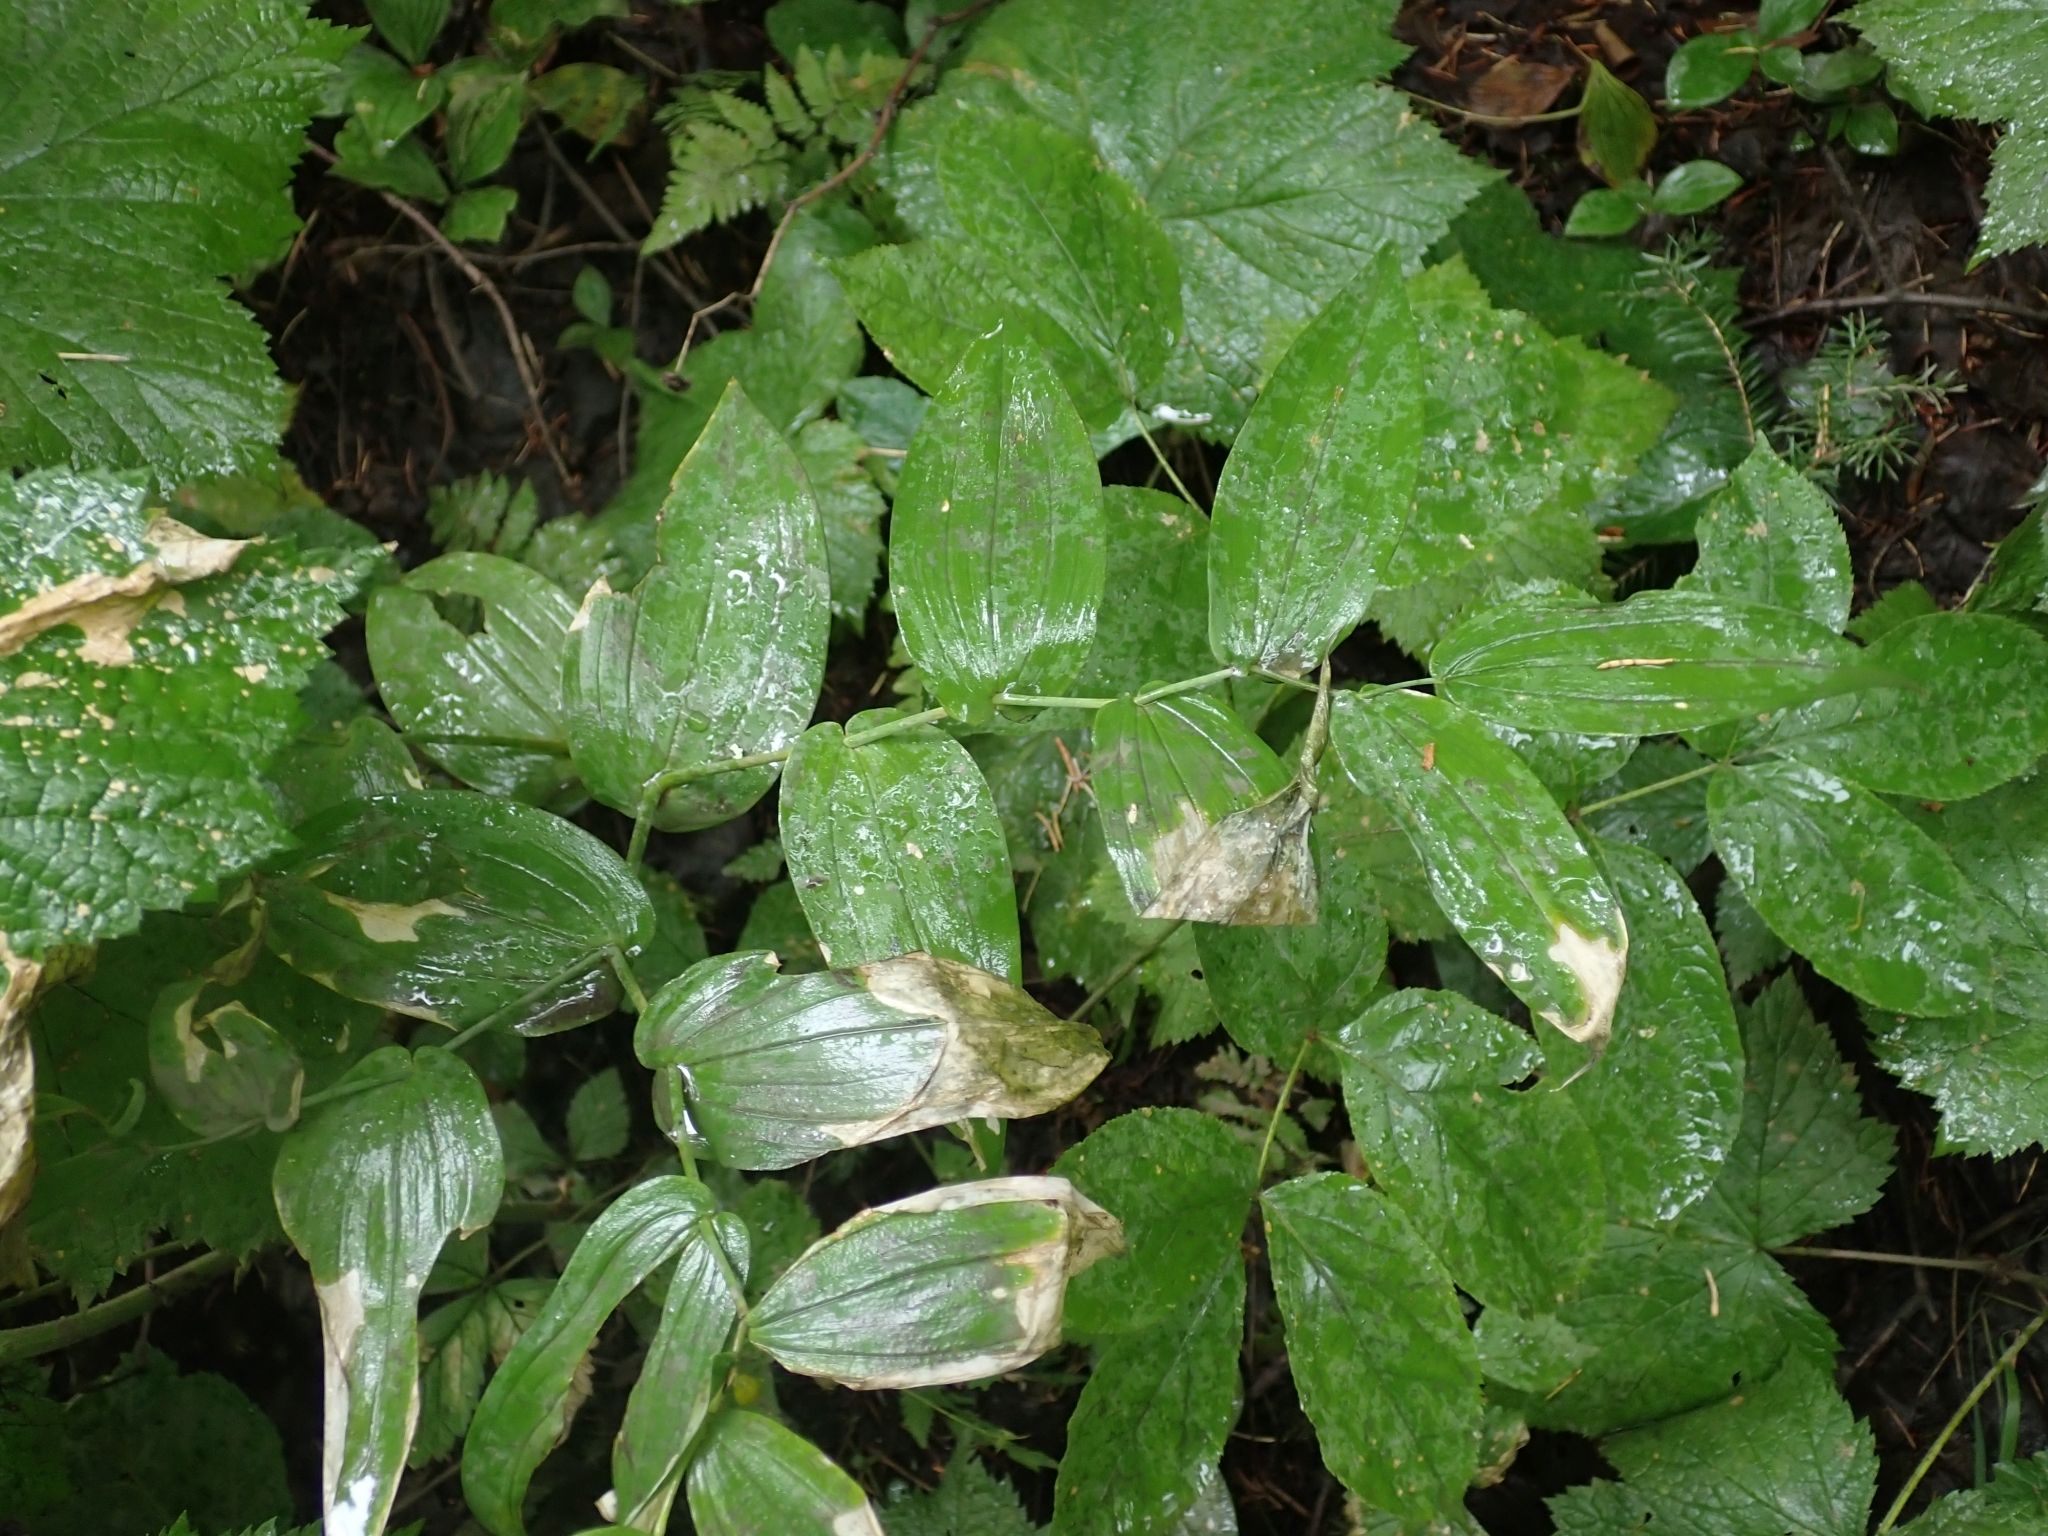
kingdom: Plantae
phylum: Tracheophyta
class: Liliopsida
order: Liliales
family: Liliaceae
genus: Streptopus
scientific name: Streptopus amplexifolius
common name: Clasp twisted stalk
